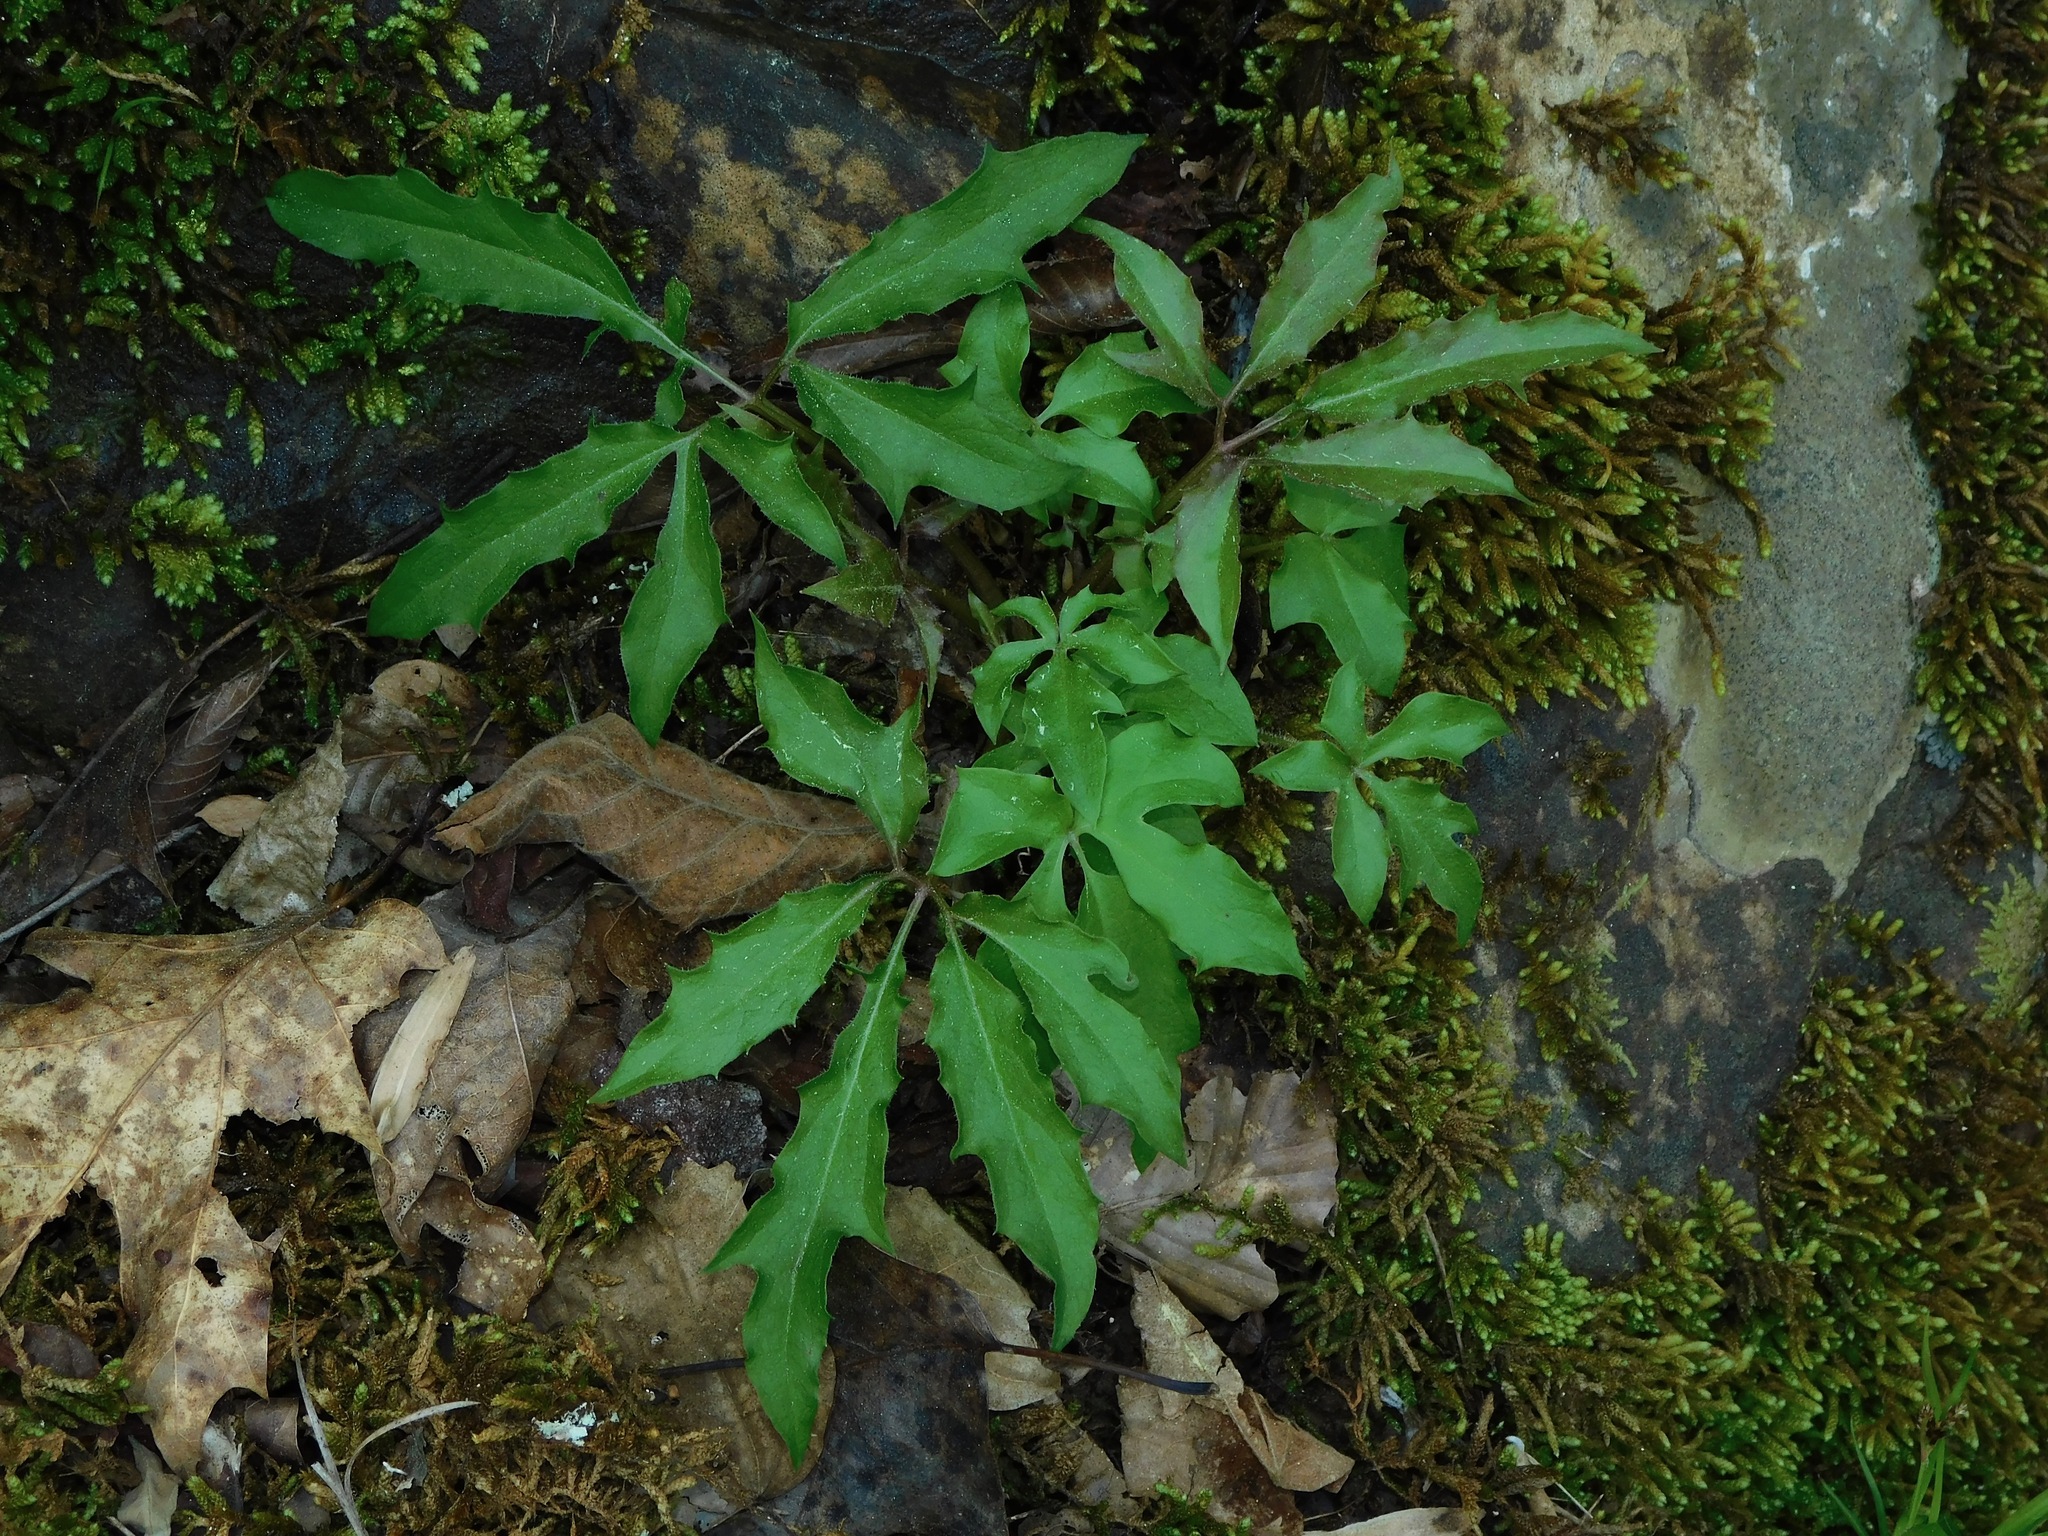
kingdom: Plantae
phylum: Tracheophyta
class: Magnoliopsida
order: Asterales
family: Asteraceae
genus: Nabalus
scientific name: Nabalus
